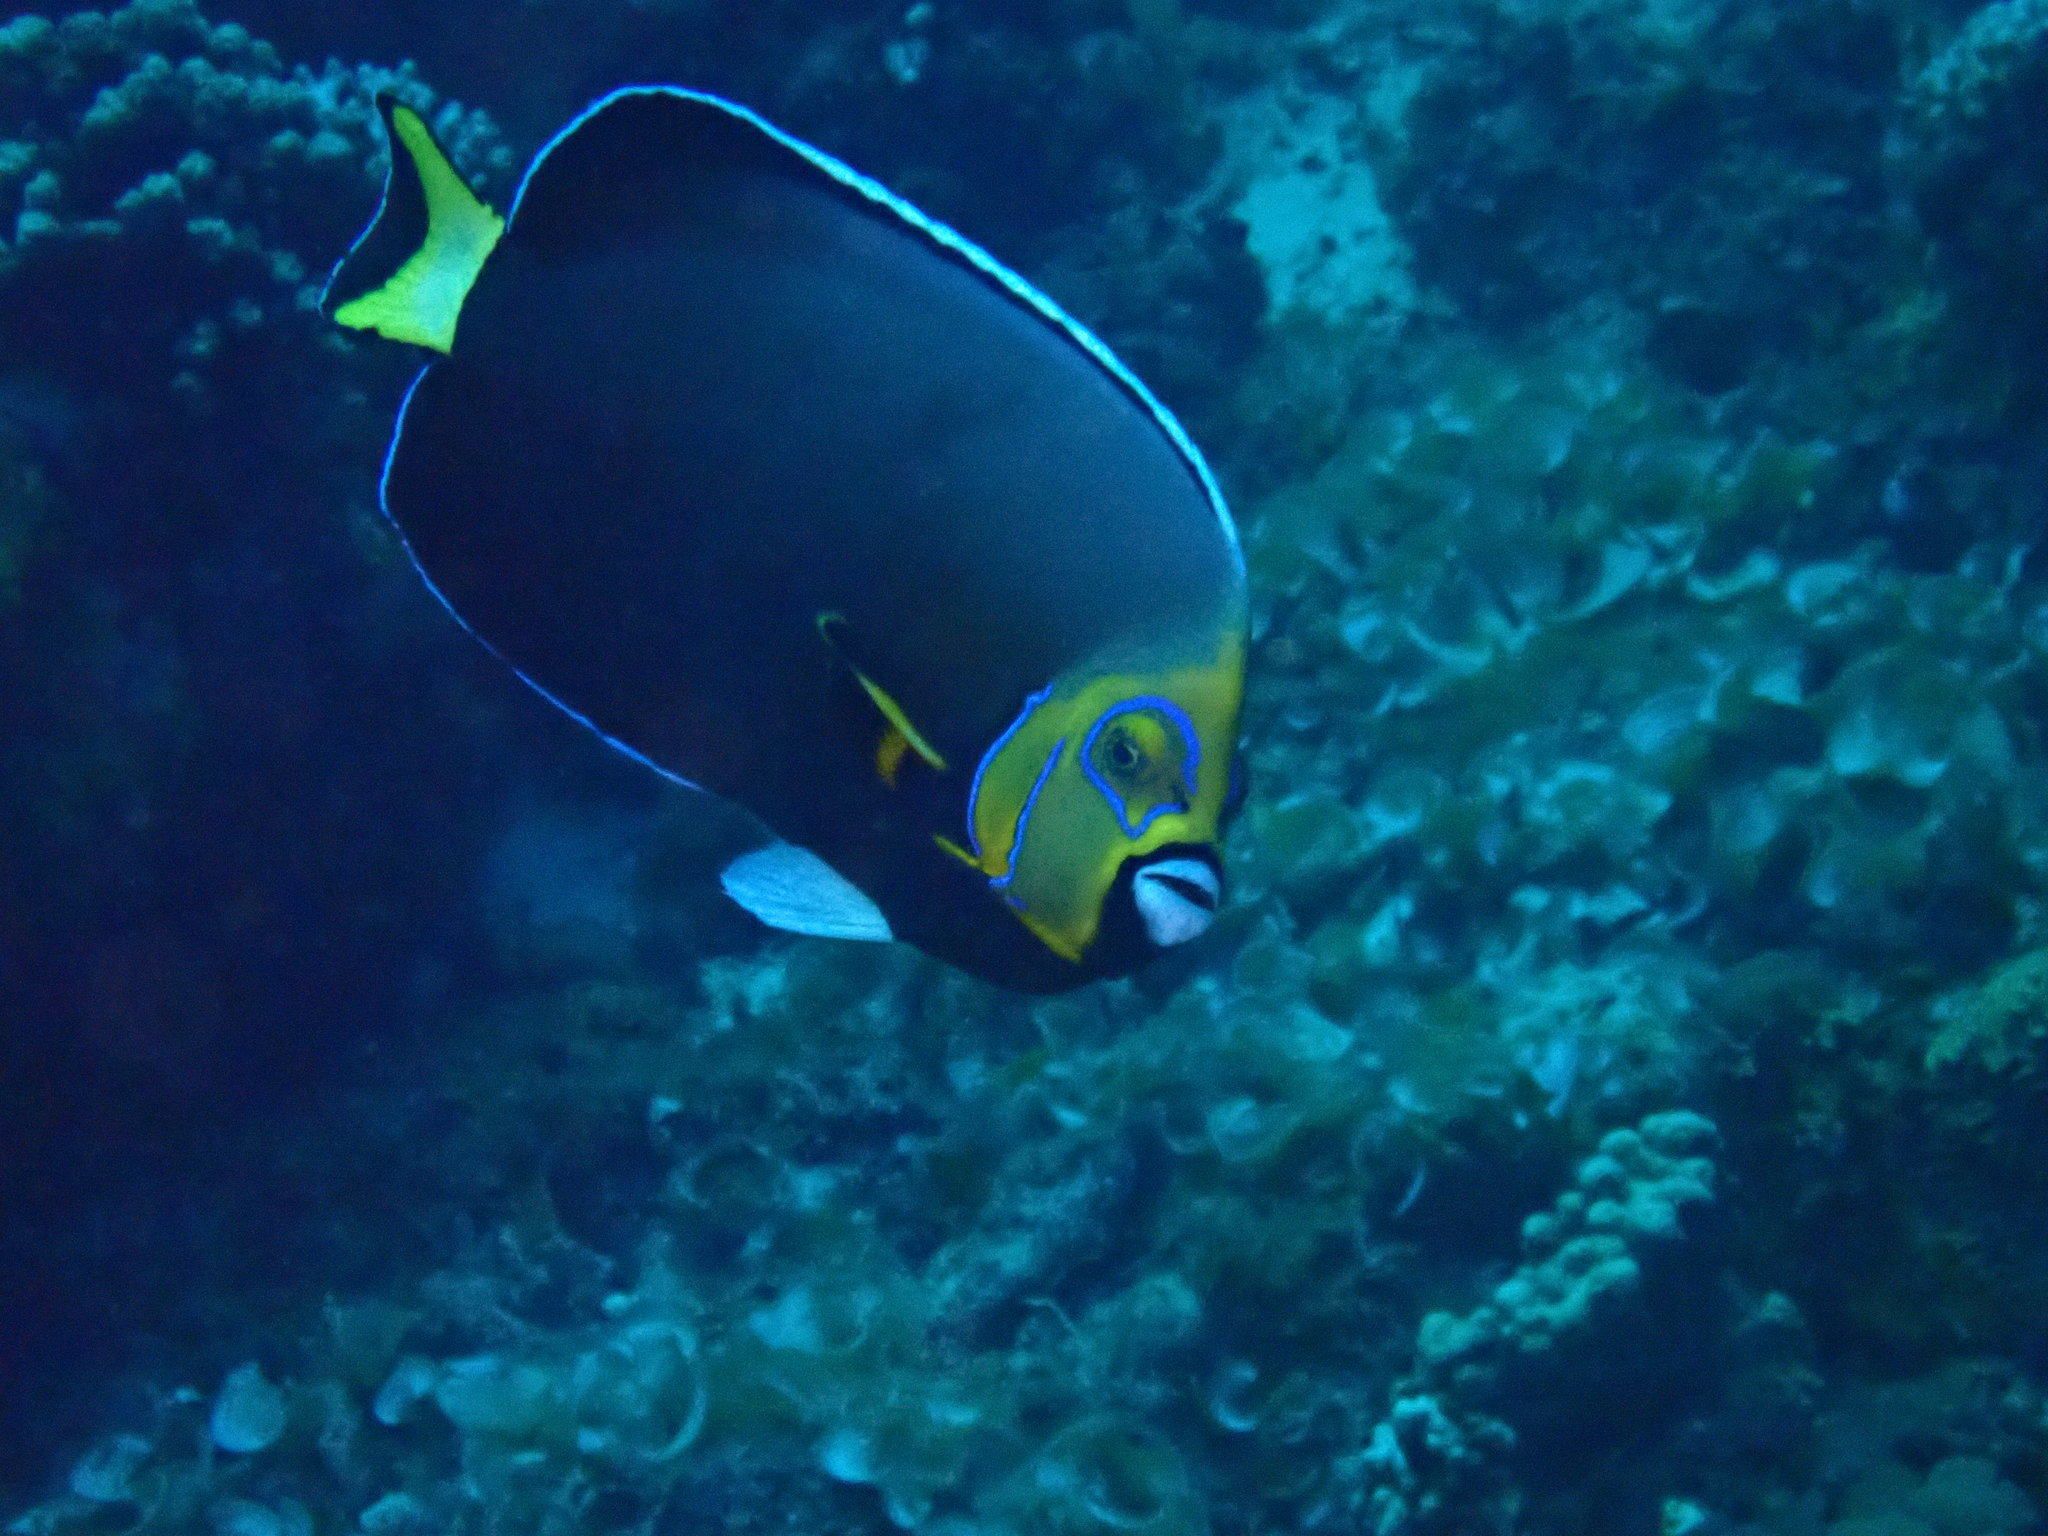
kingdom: Animalia
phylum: Chordata
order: Perciformes
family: Pomacanthidae
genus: Chaetodontoplus
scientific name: Chaetodontoplus conspicillatus
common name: Conspicuous angelfish
